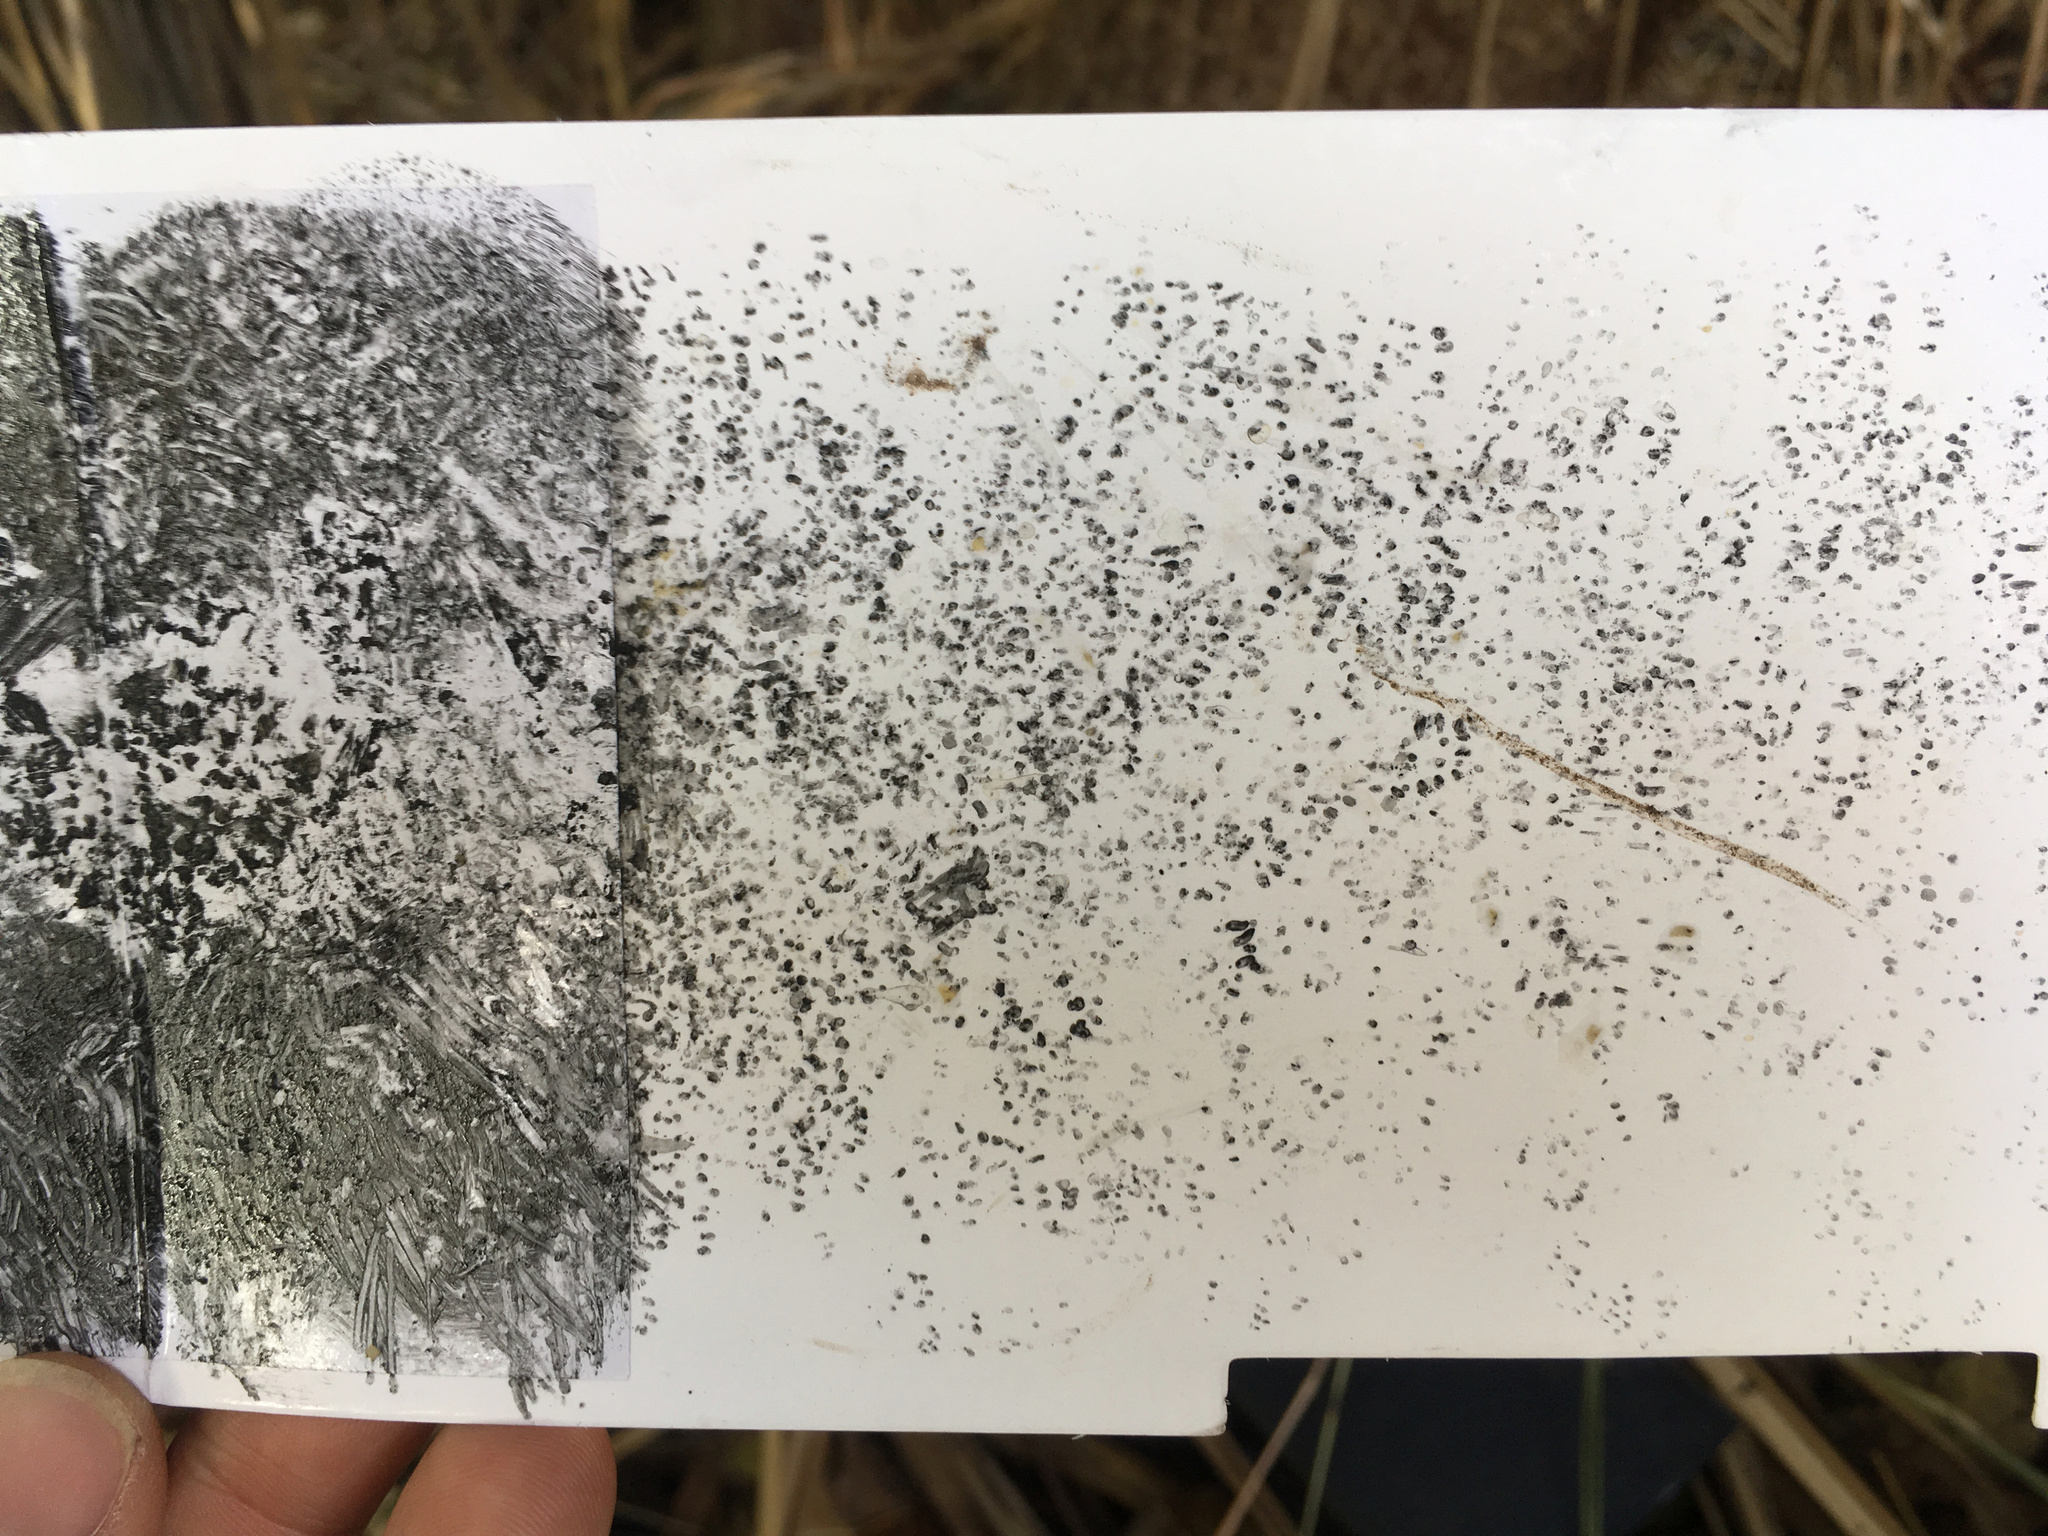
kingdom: Animalia
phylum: Chordata
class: Mammalia
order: Rodentia
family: Muridae
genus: Mus
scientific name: Mus musculus
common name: House mouse
